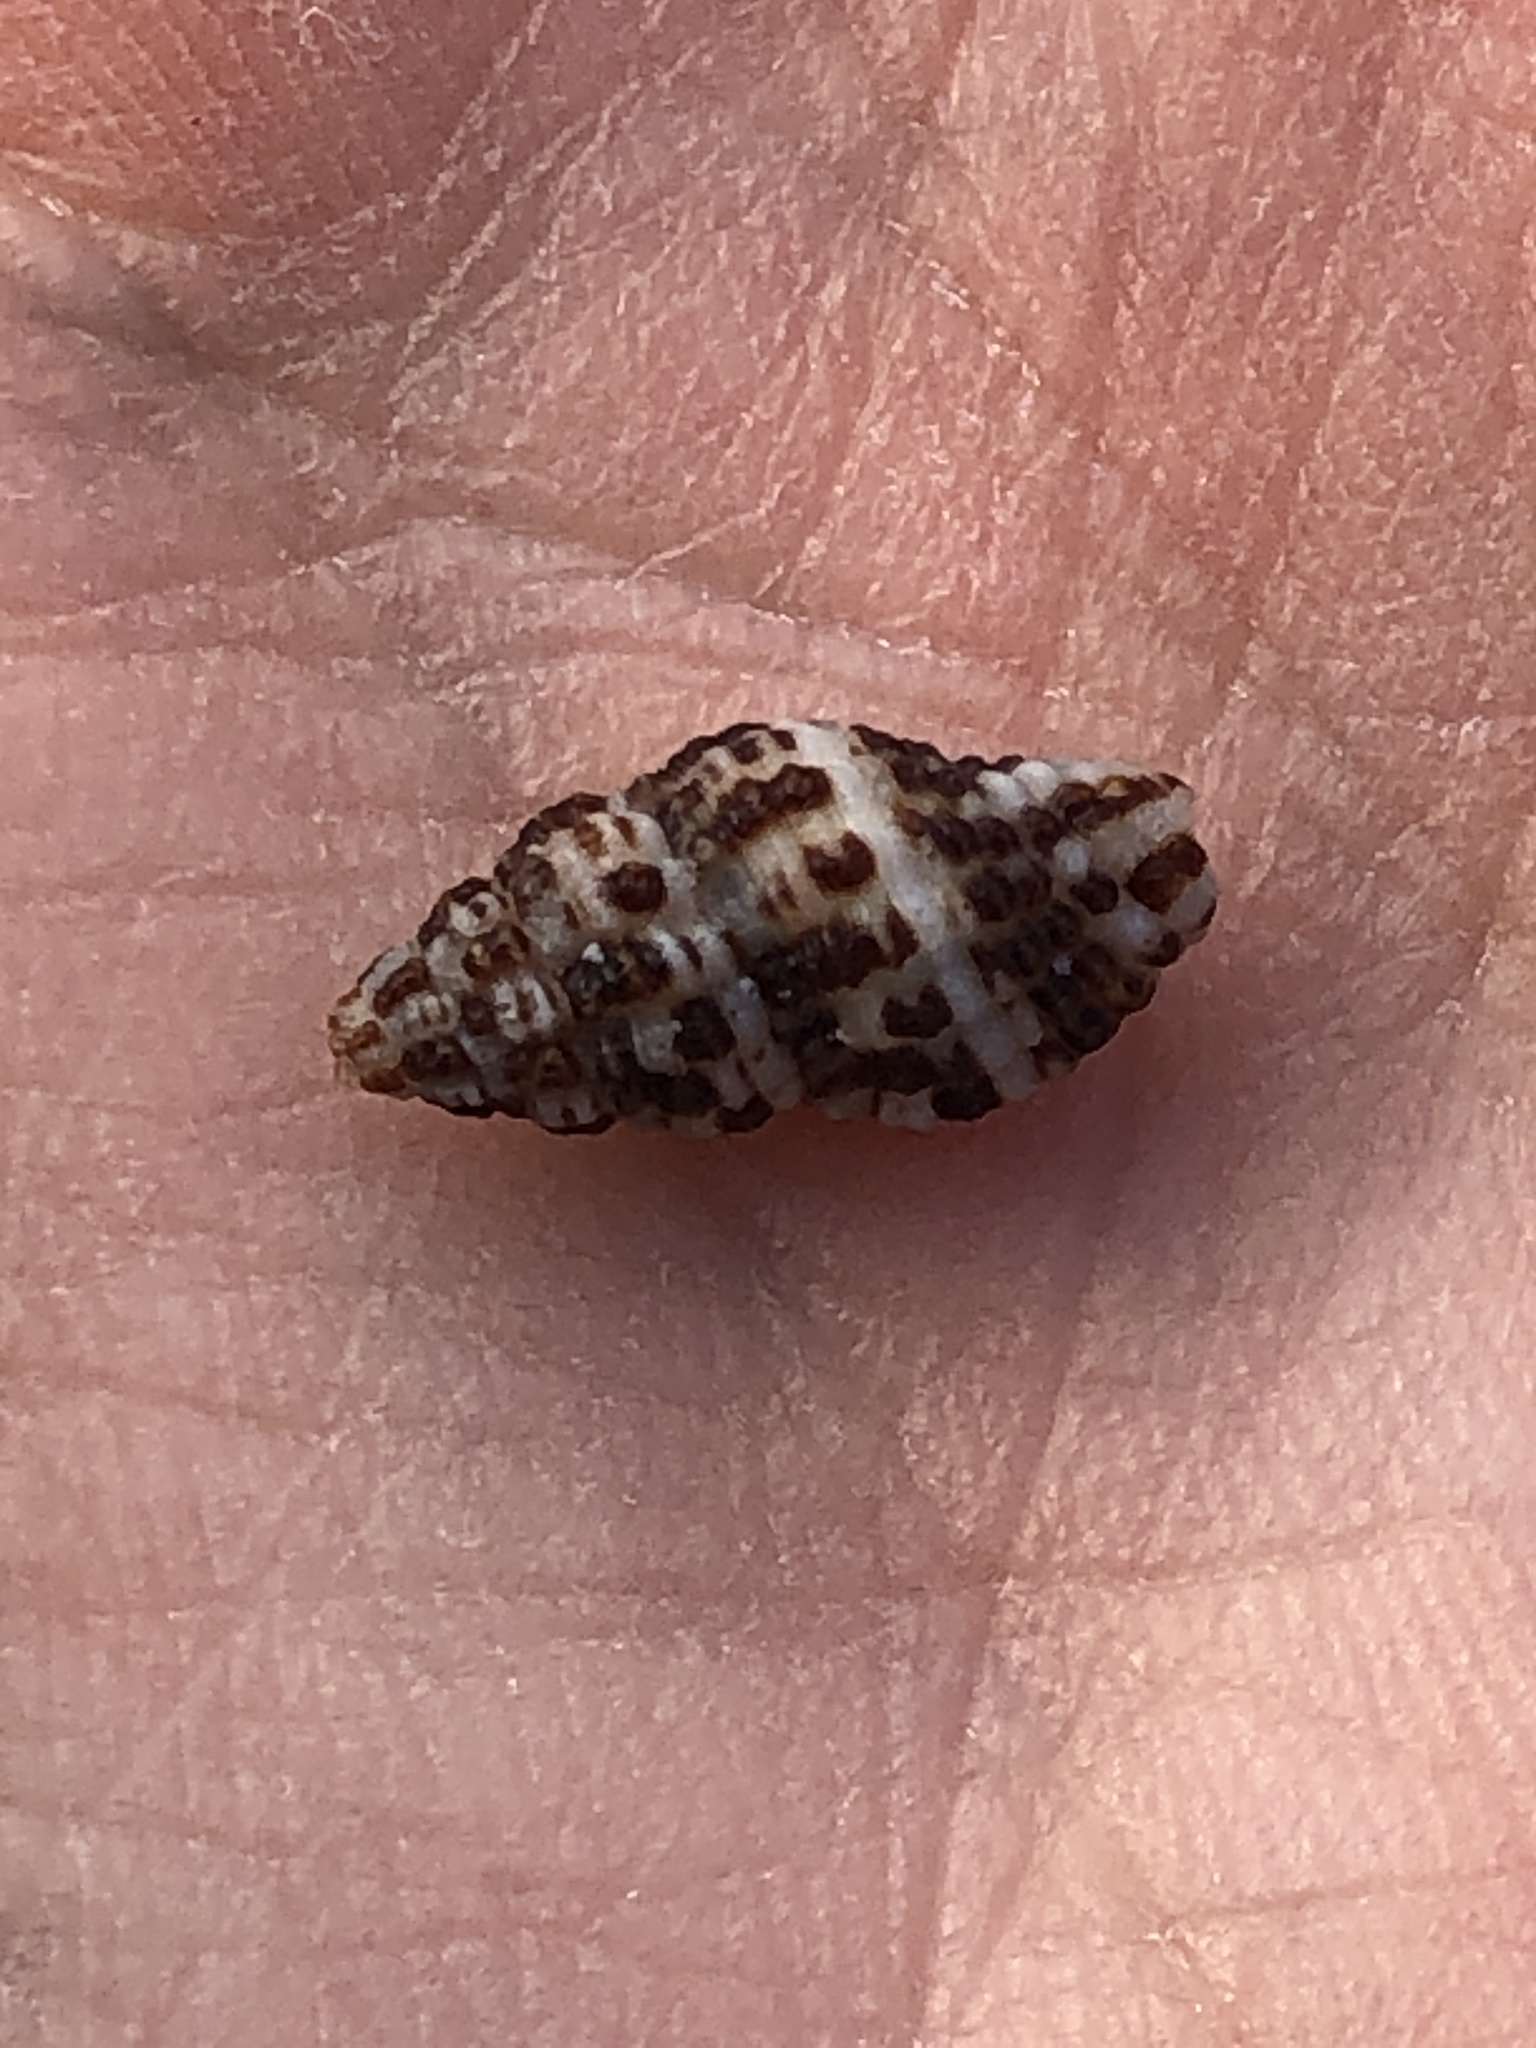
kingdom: Animalia
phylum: Mollusca
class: Gastropoda
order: Neogastropoda
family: Pisaniidae
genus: Engina
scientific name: Engina menkeana
